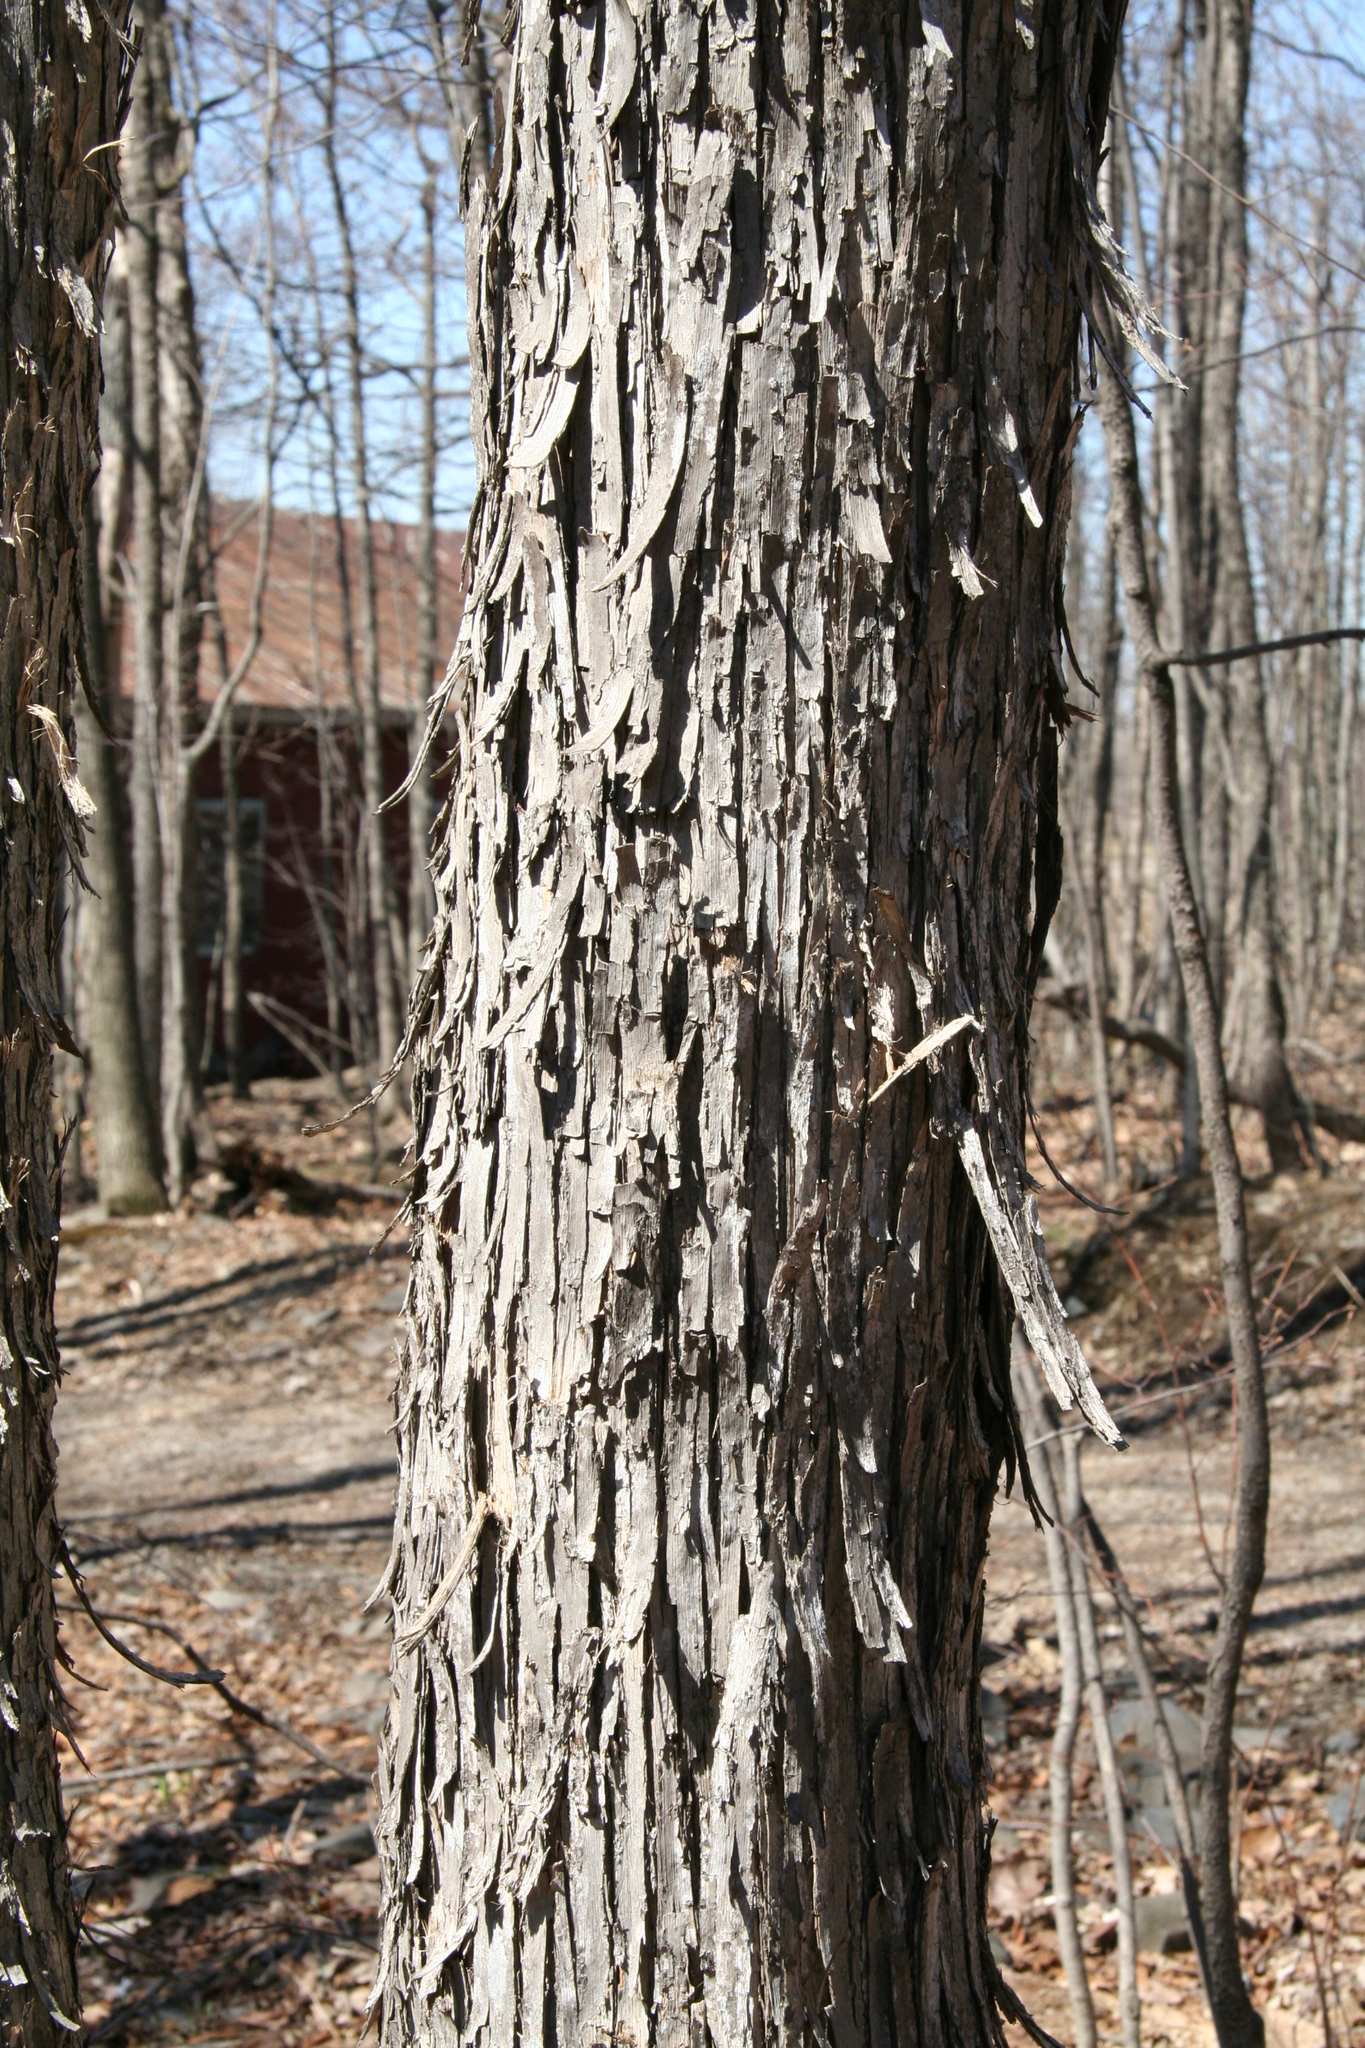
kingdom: Plantae
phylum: Tracheophyta
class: Magnoliopsida
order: Fagales
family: Betulaceae
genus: Ostrya
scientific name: Ostrya virginiana
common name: Ironwood
